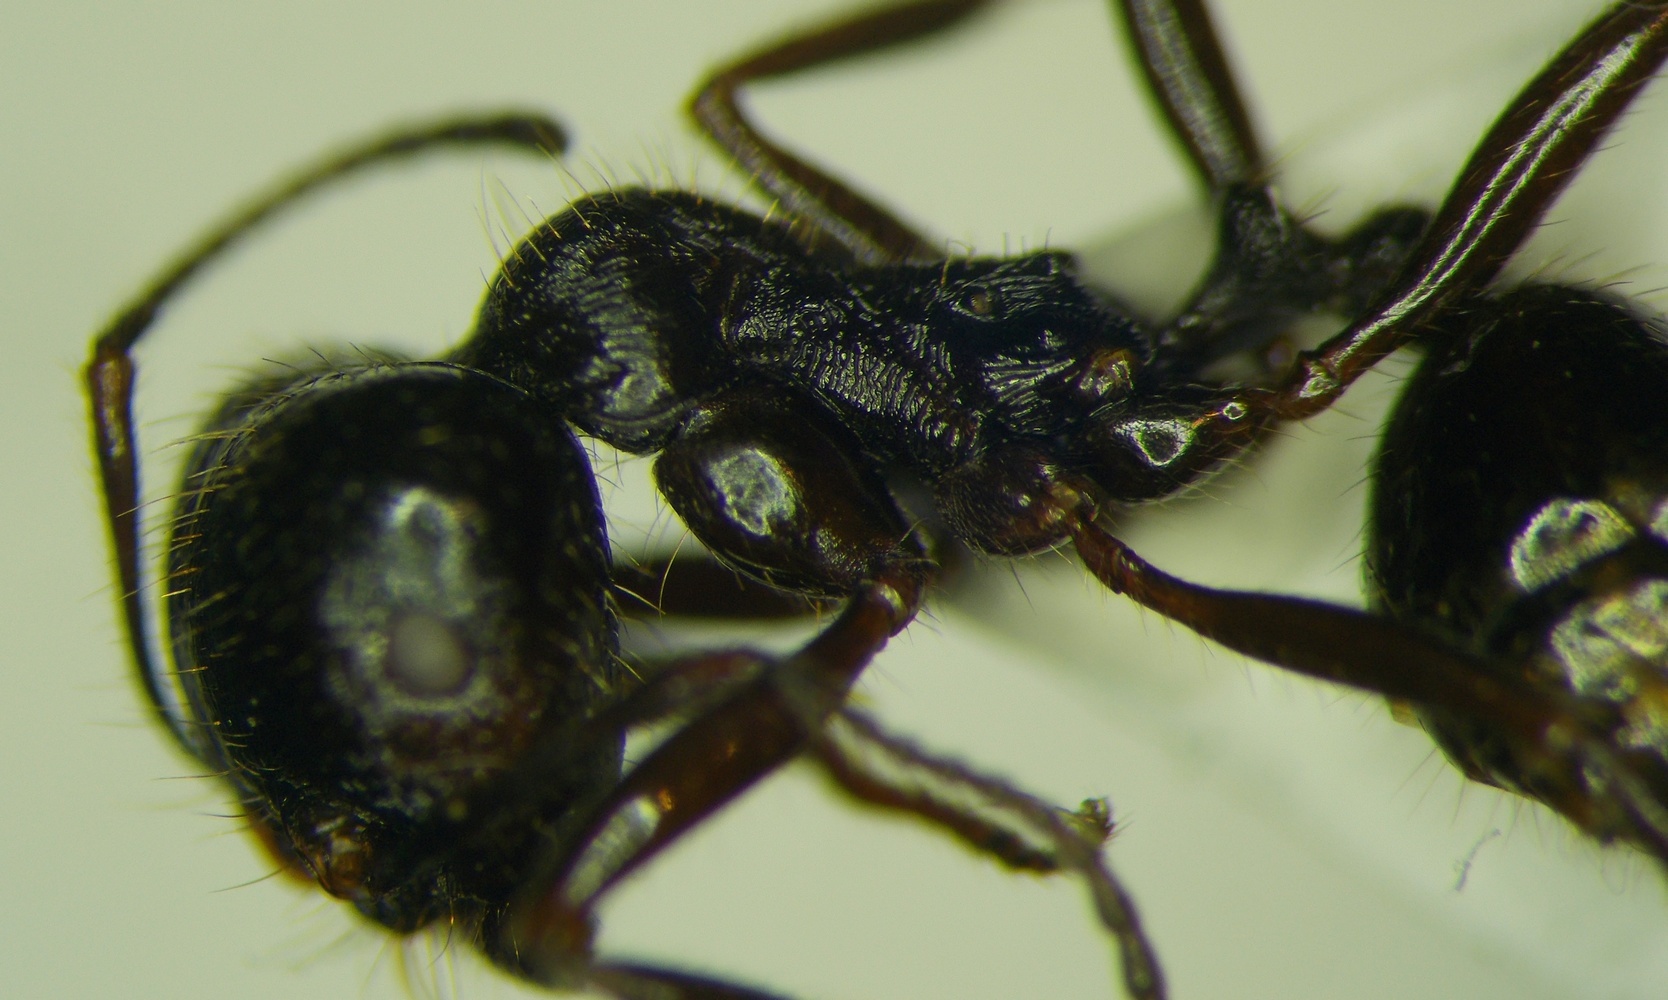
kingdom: Animalia
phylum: Arthropoda
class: Insecta
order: Hymenoptera
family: Formicidae
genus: Messor
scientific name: Messor structor
